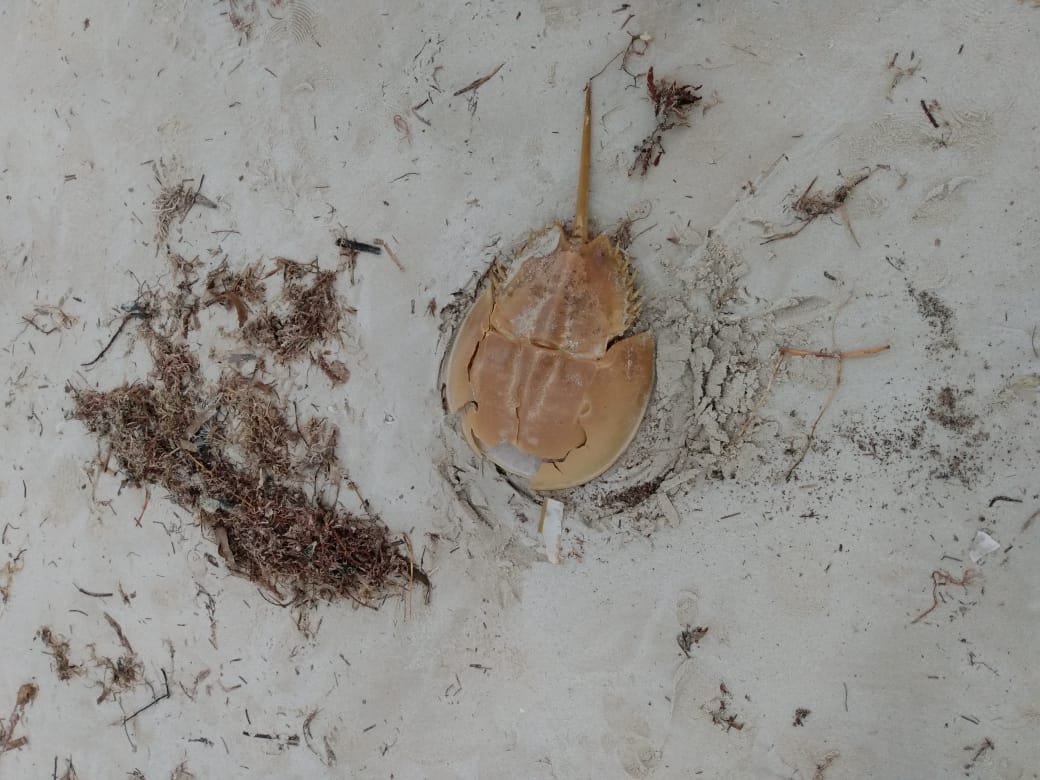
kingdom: Animalia
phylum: Arthropoda
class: Merostomata
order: Xiphosurida
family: Limulidae
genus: Limulus
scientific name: Limulus polyphemus
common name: Horseshoe crab
